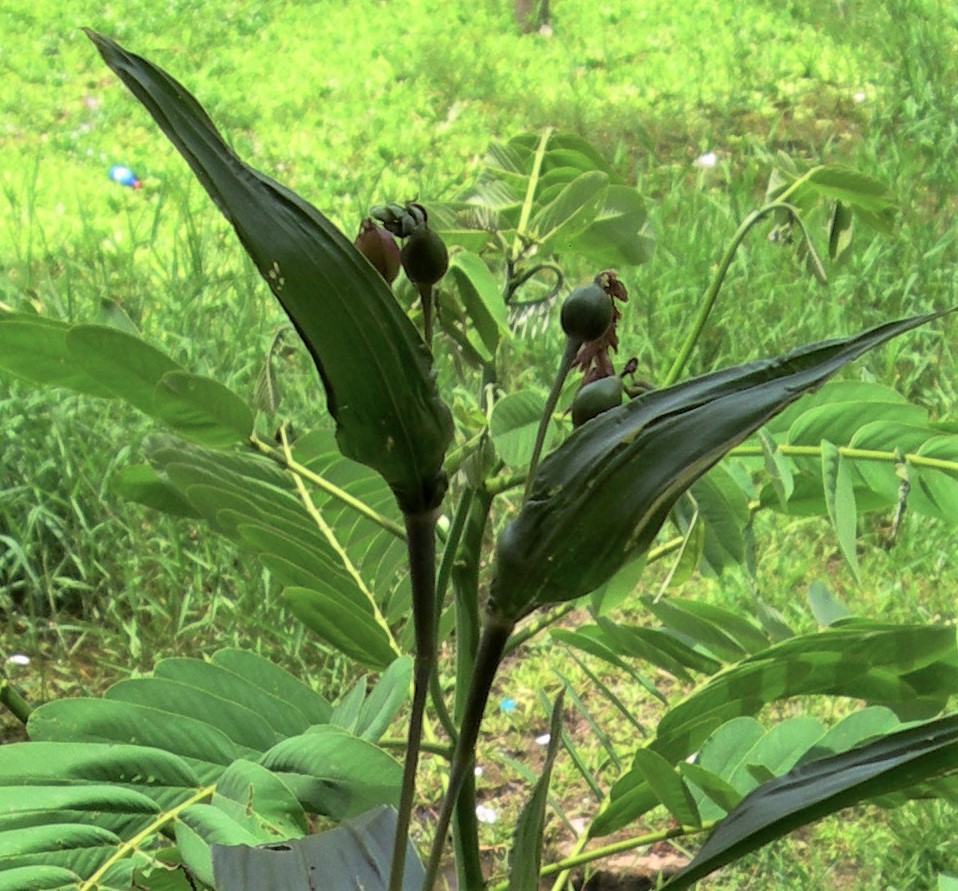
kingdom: Plantae
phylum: Tracheophyta
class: Liliopsida
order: Poales
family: Poaceae
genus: Coix
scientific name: Coix lacryma-jobi
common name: Job's tears
